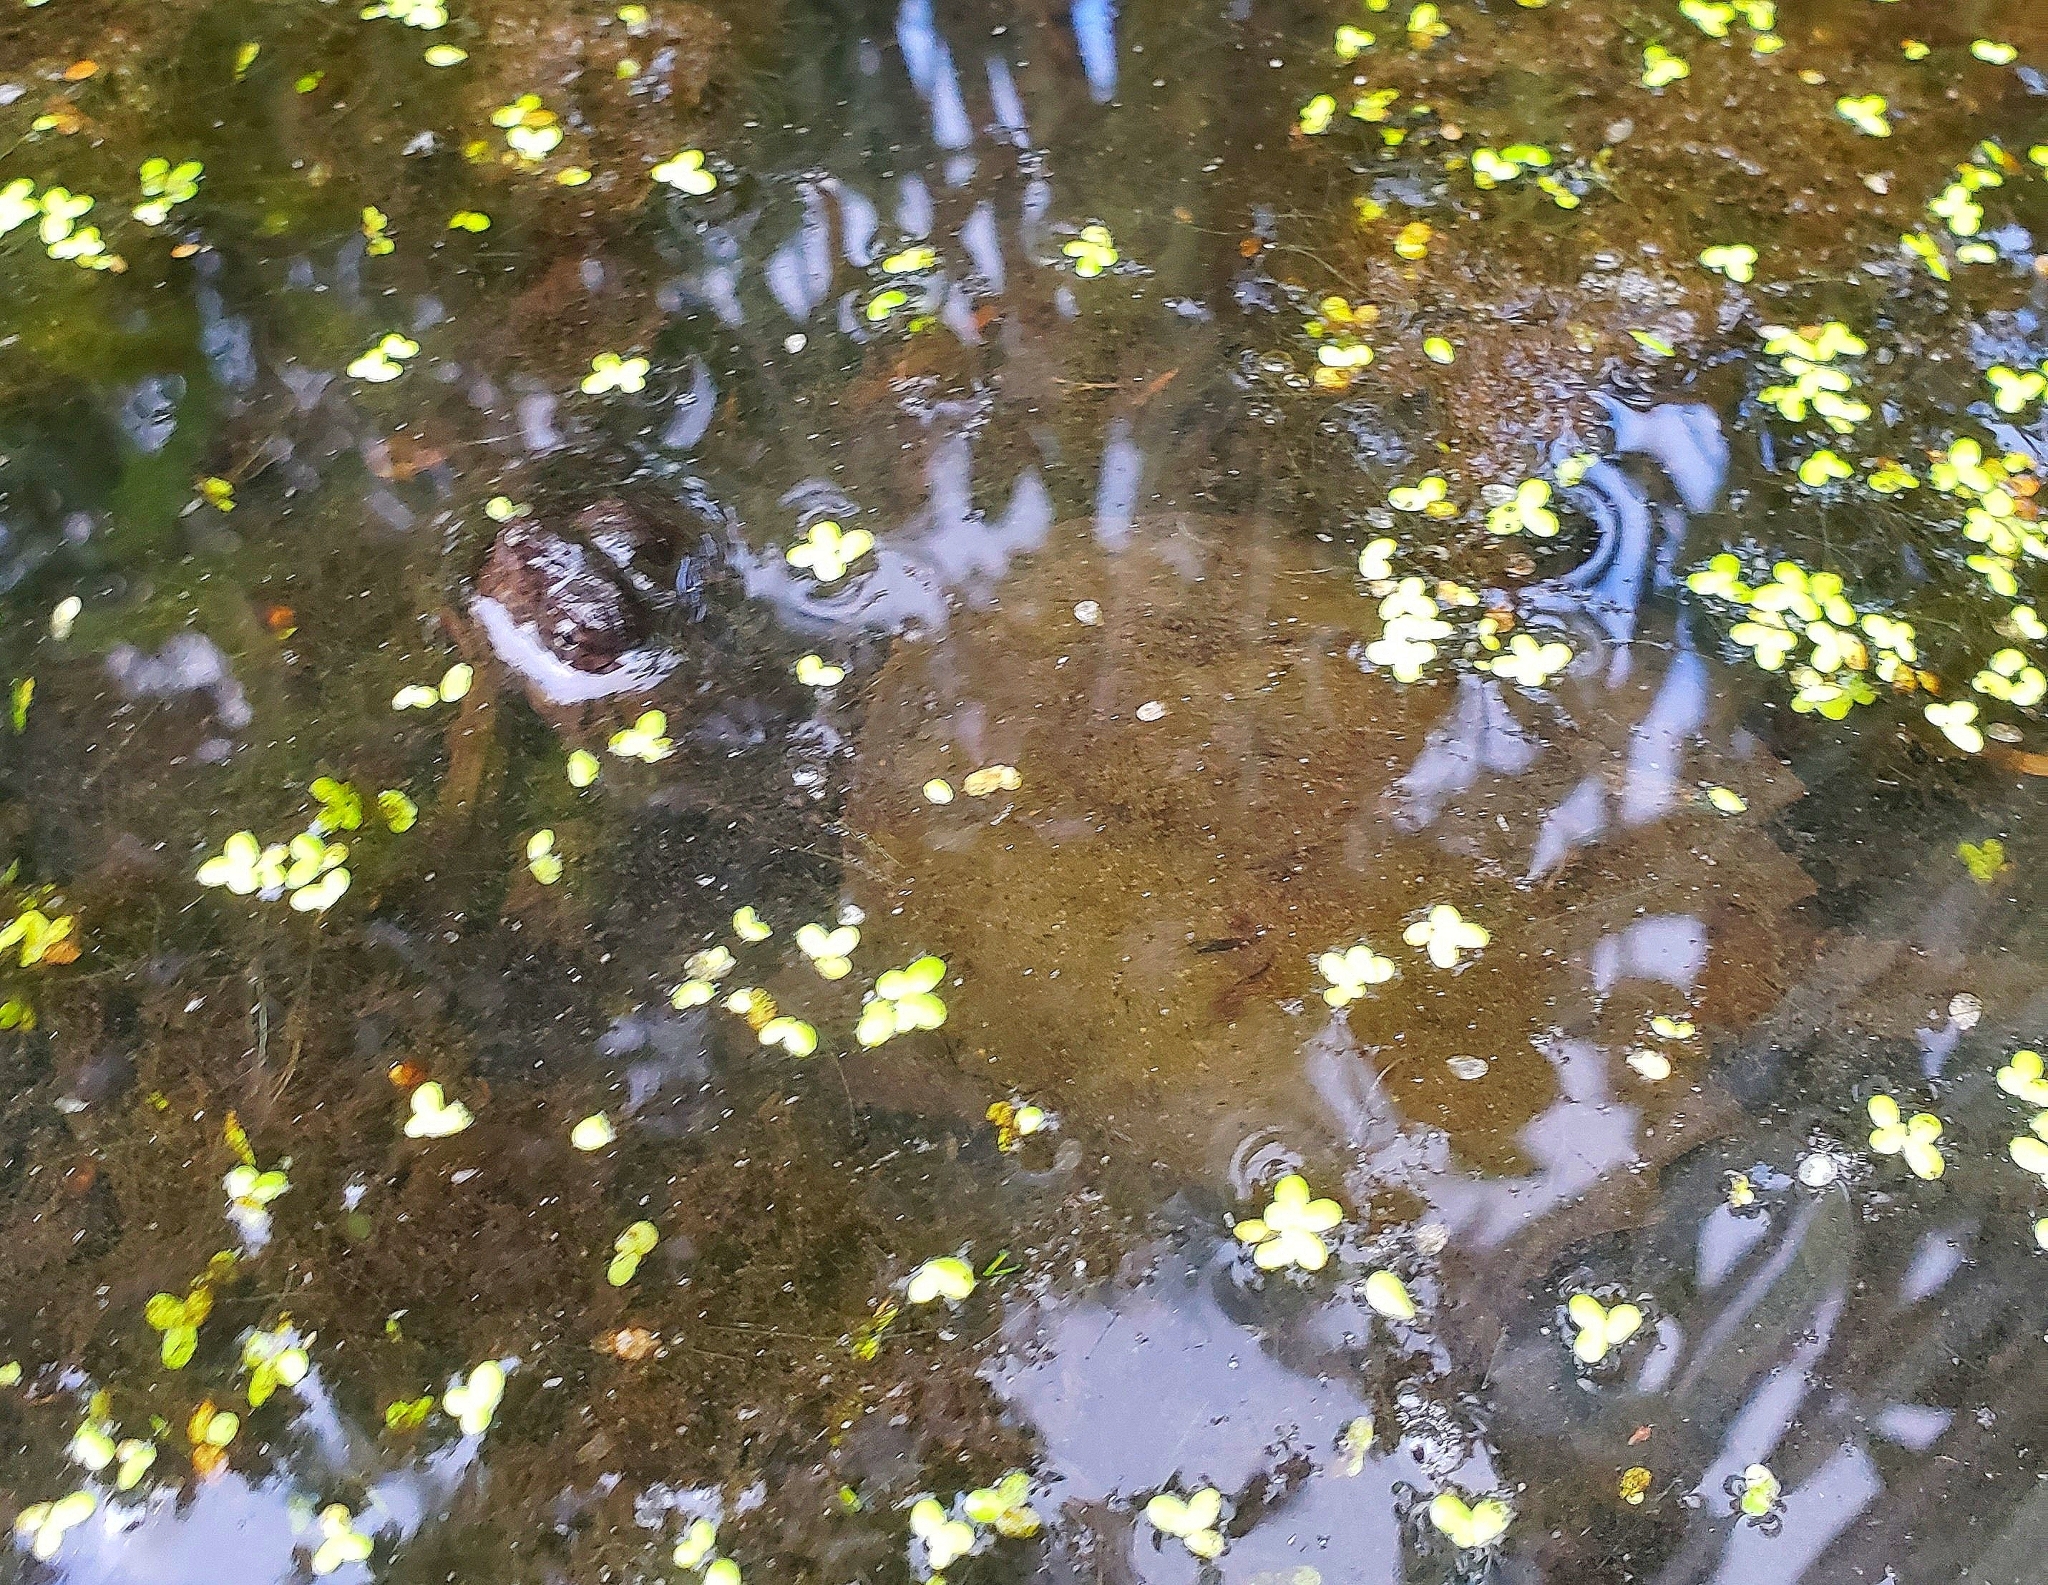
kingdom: Animalia
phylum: Chordata
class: Testudines
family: Chelydridae
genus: Chelydra
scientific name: Chelydra serpentina
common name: Common snapping turtle
